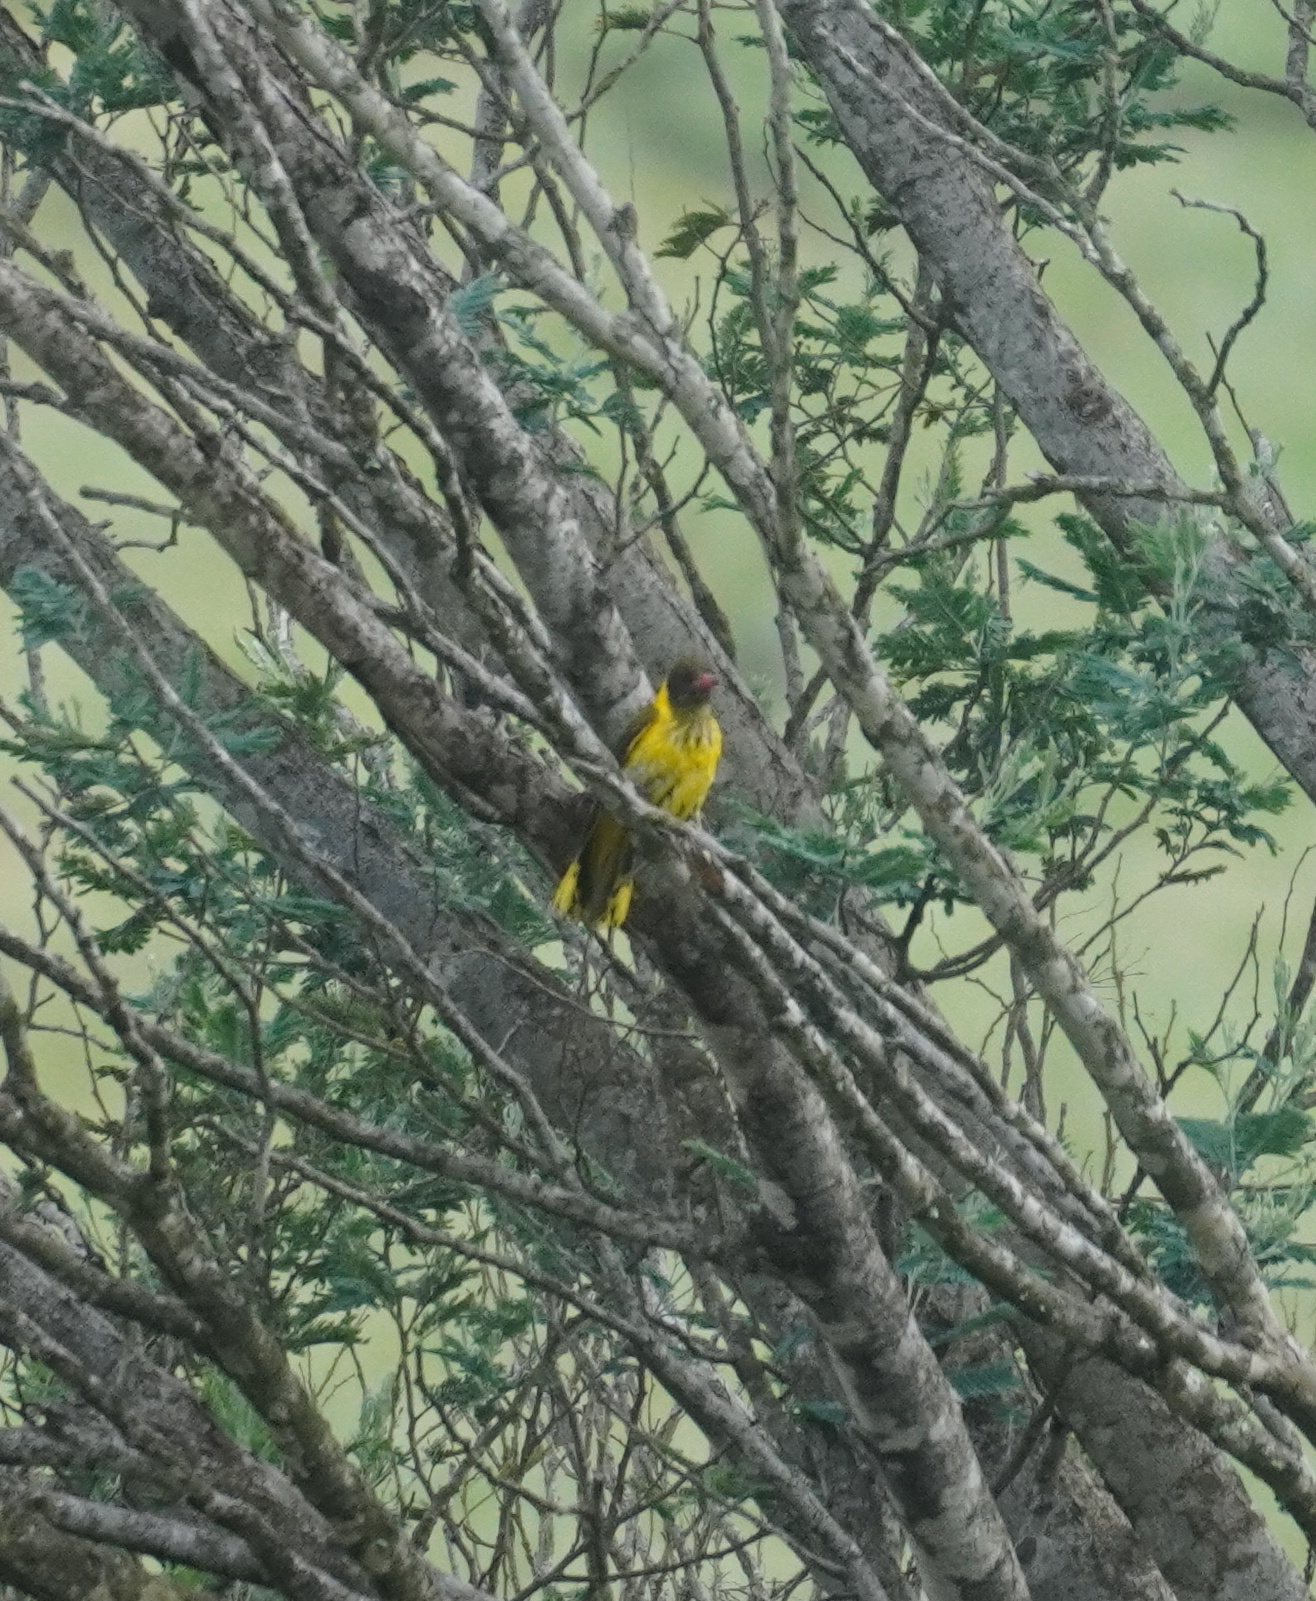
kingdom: Animalia
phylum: Chordata
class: Aves
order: Passeriformes
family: Oriolidae
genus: Oriolus
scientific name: Oriolus larvatus
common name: Black-headed oriole
